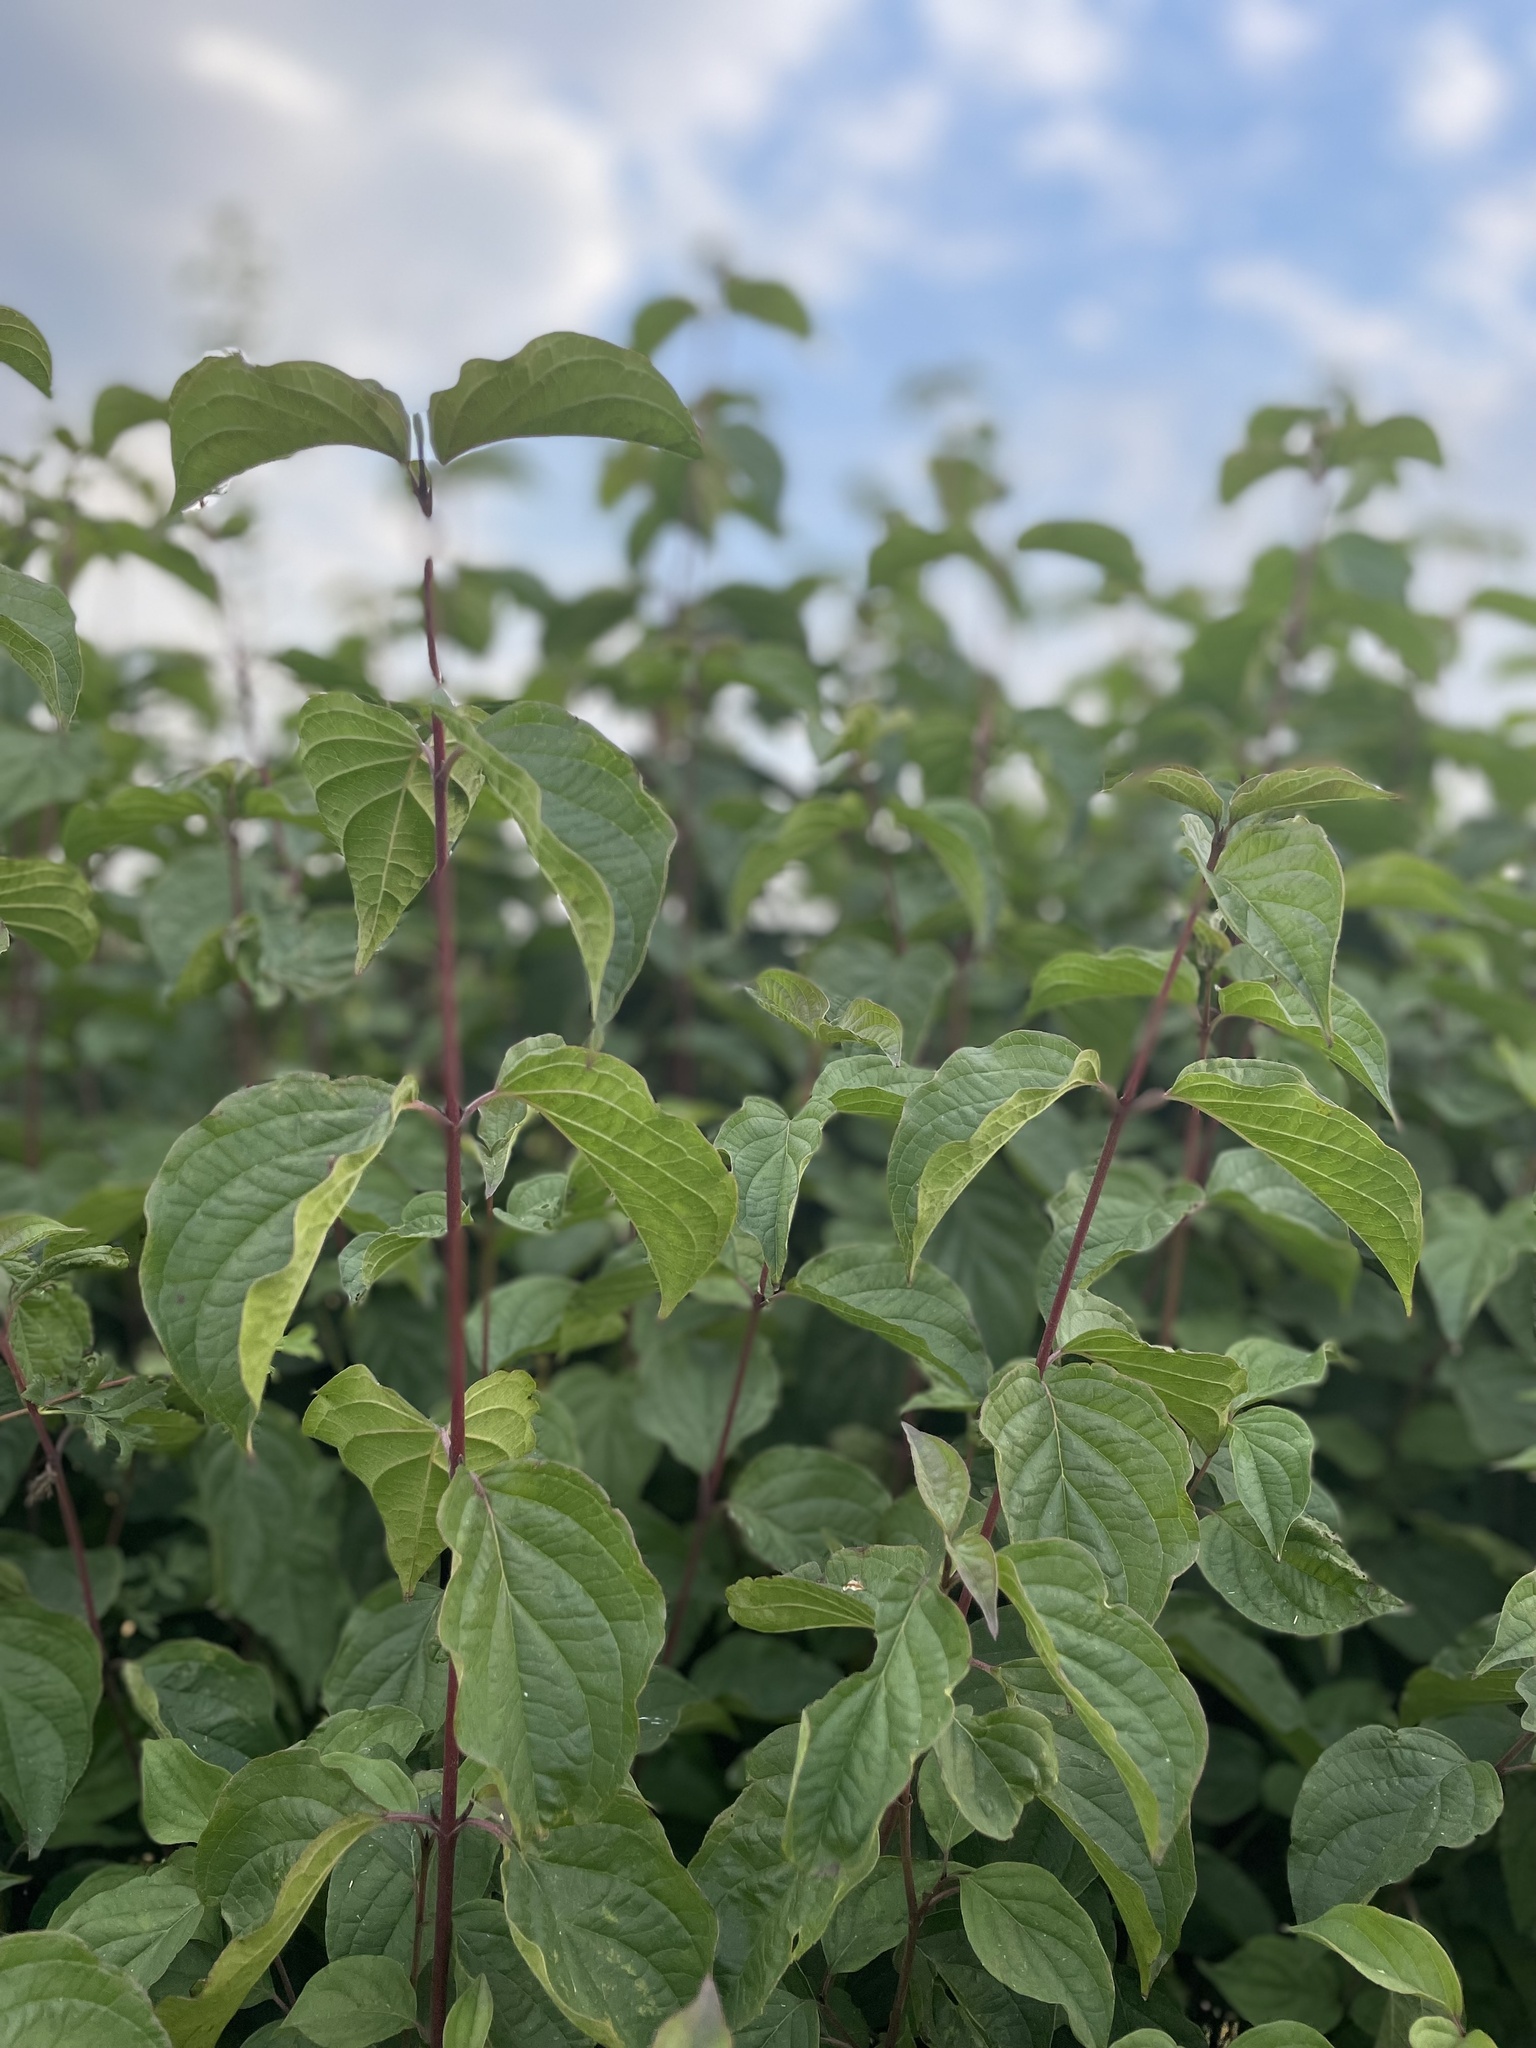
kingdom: Plantae
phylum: Tracheophyta
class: Magnoliopsida
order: Cornales
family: Cornaceae
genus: Cornus
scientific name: Cornus sanguinea
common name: Dogwood
